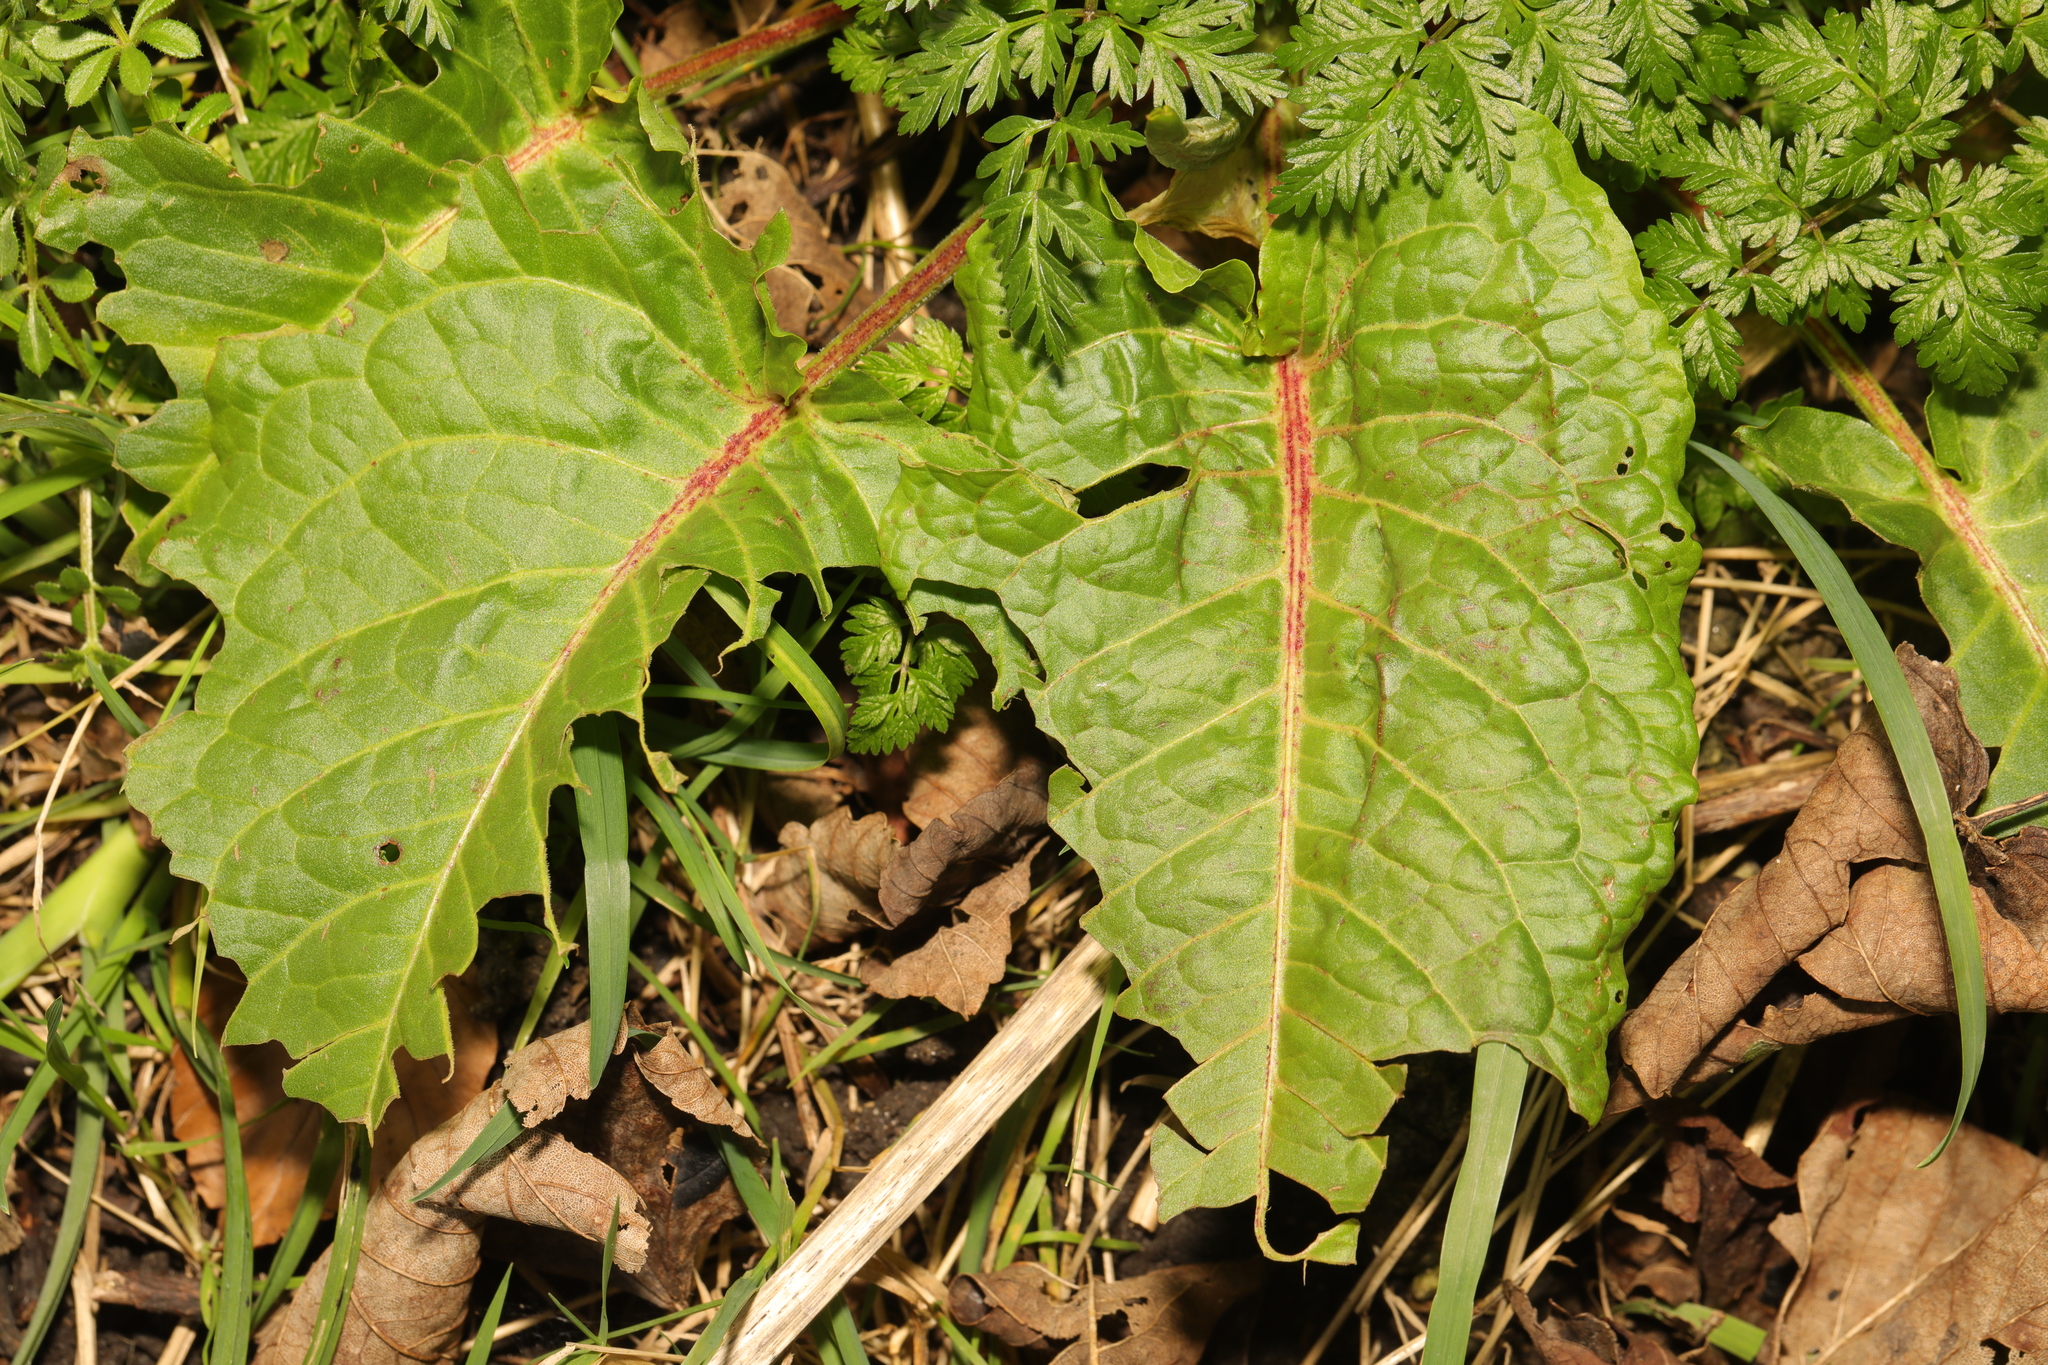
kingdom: Plantae
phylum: Tracheophyta
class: Magnoliopsida
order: Caryophyllales
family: Polygonaceae
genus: Rumex
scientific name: Rumex obtusifolius
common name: Bitter dock
